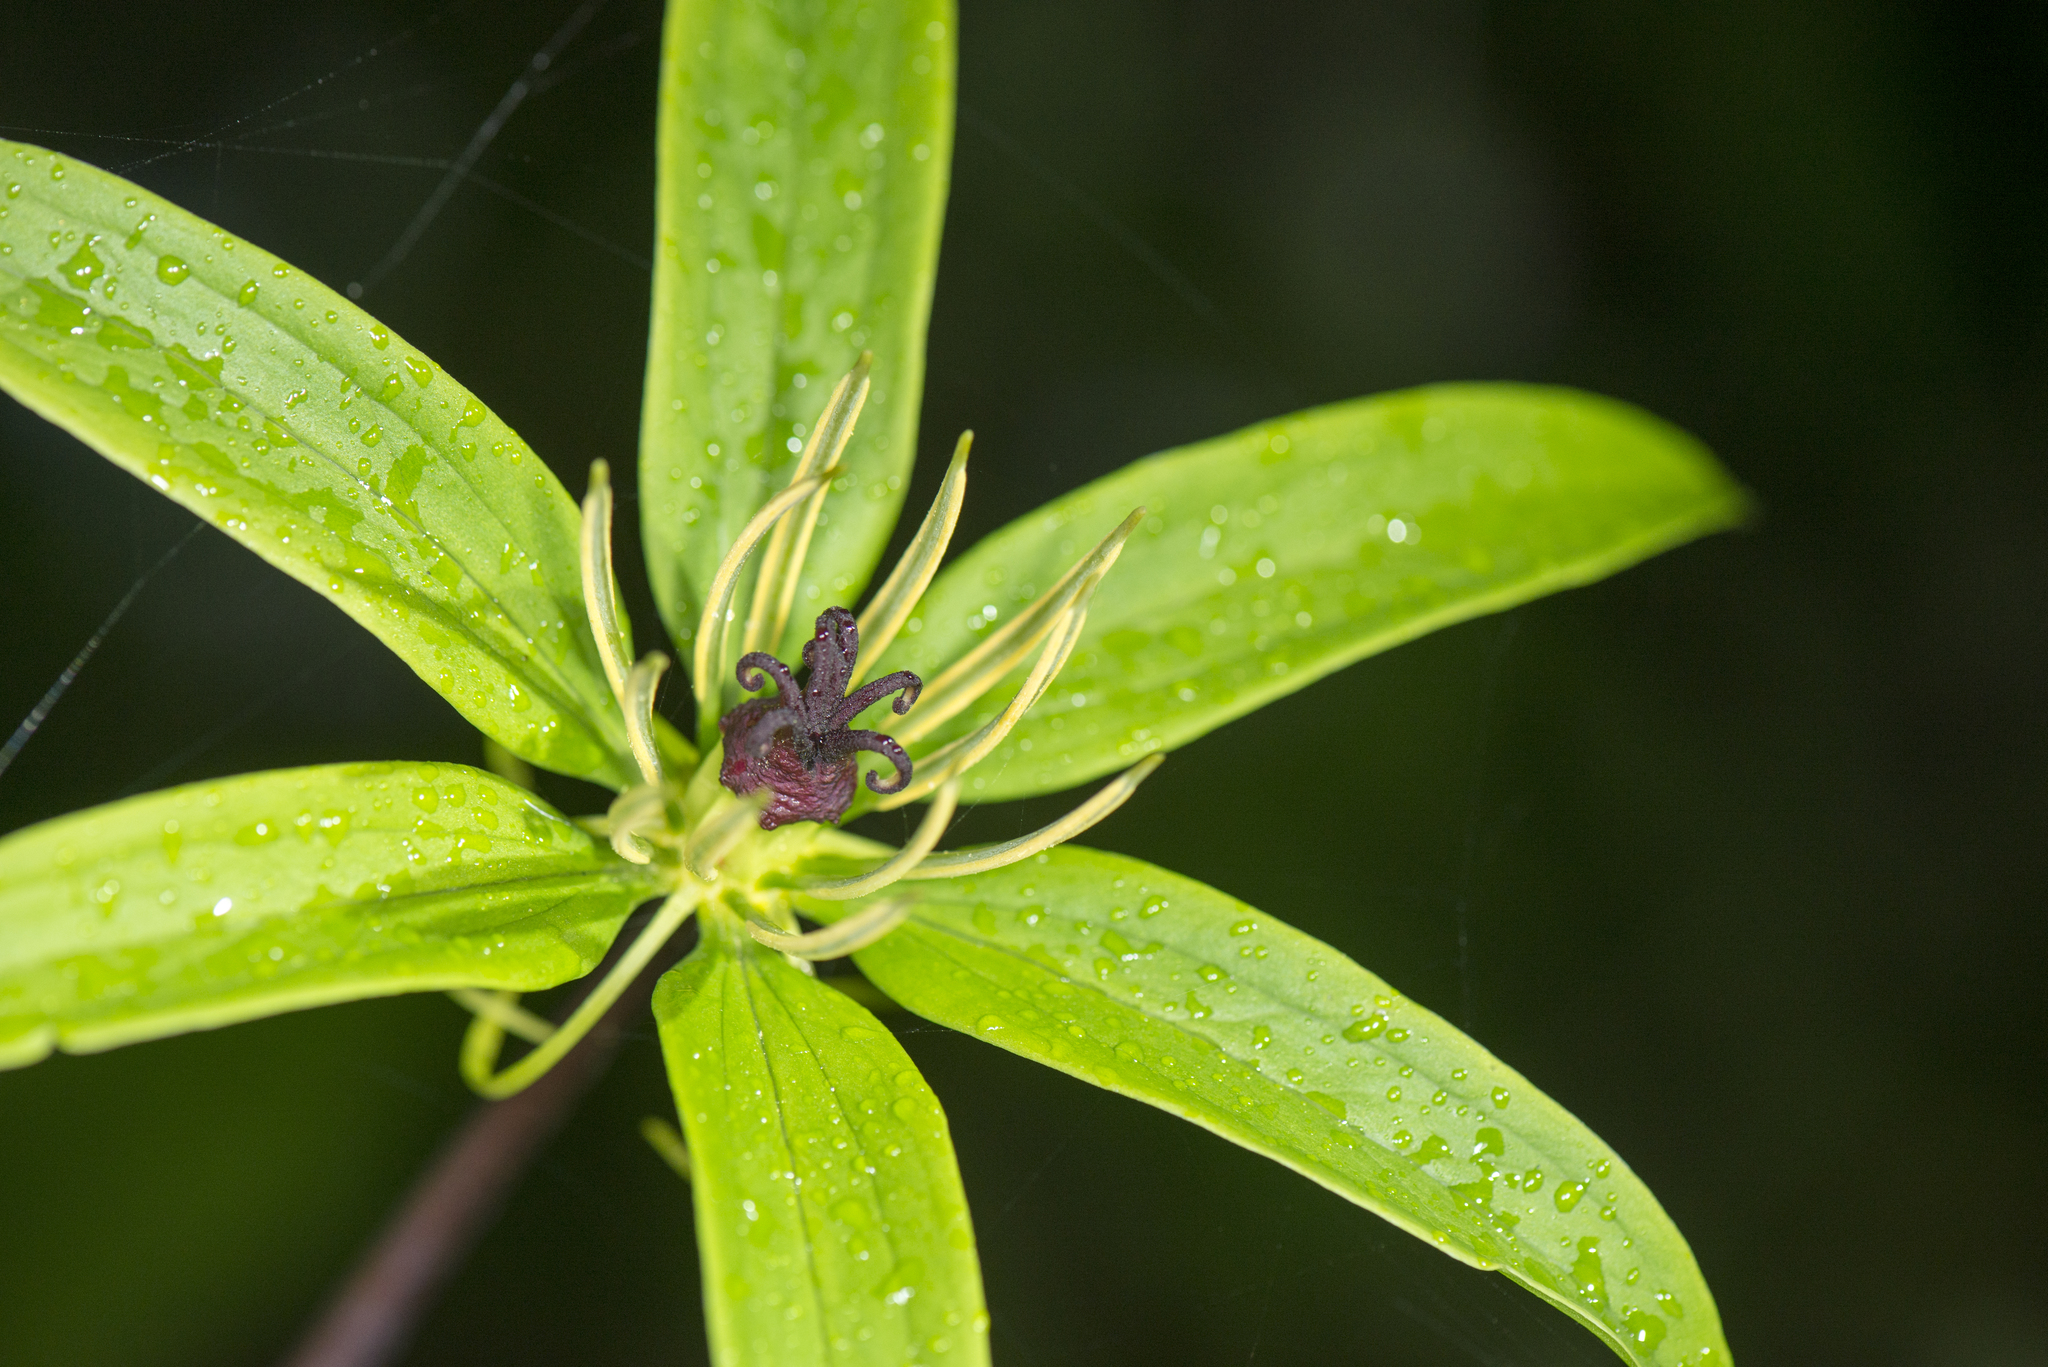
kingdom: Plantae
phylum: Tracheophyta
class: Liliopsida
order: Liliales
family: Melanthiaceae
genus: Paris
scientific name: Paris polyphylla
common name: Love apple
